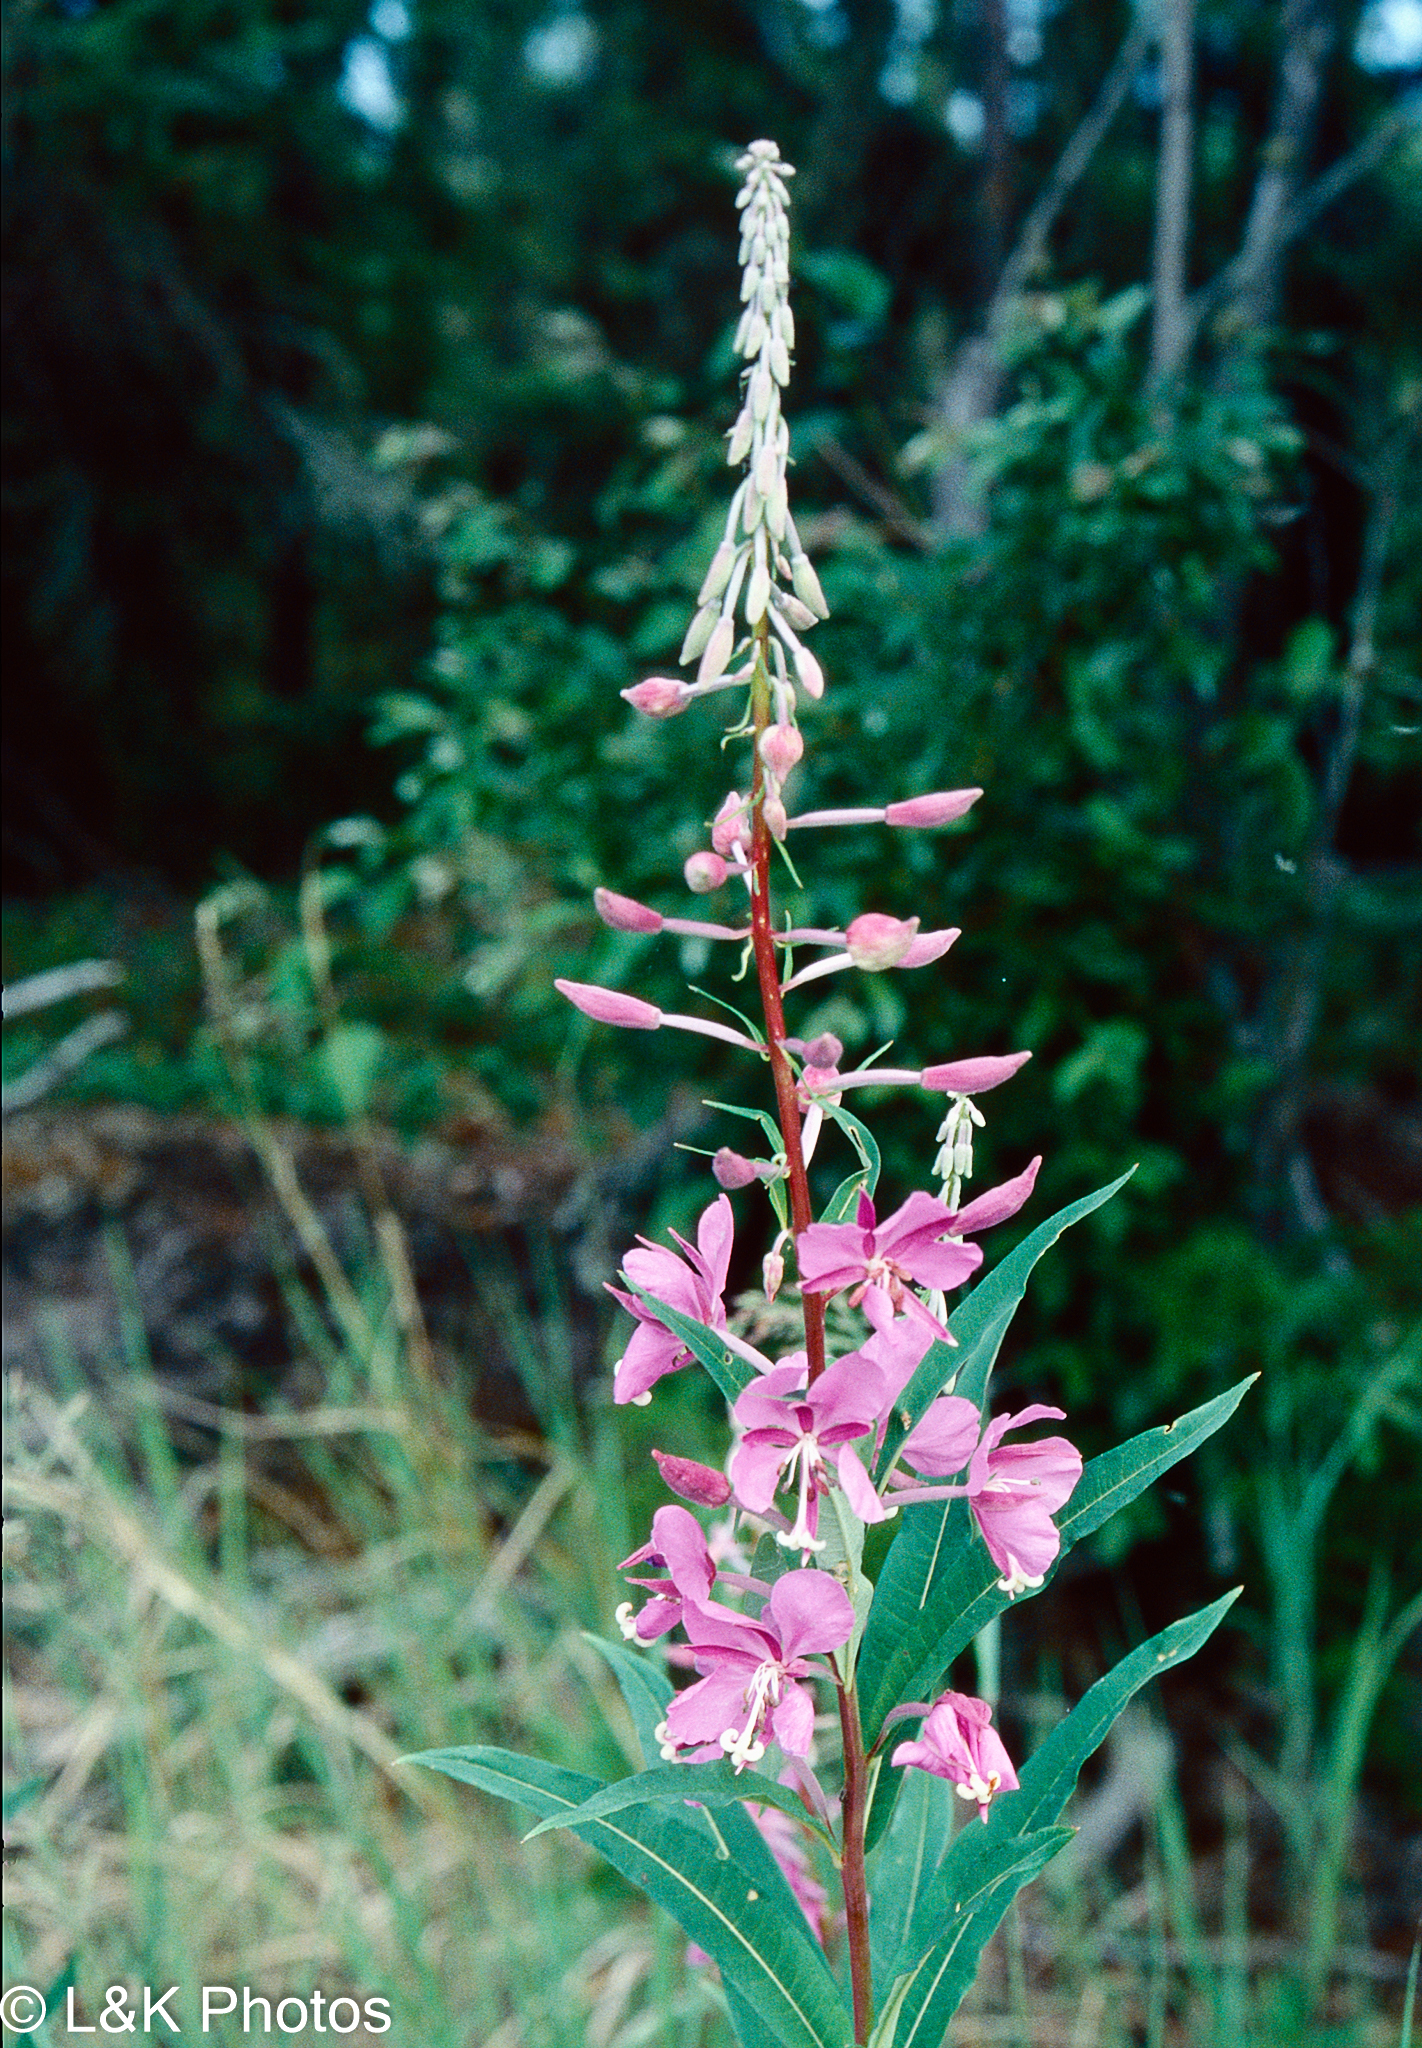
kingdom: Plantae
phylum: Tracheophyta
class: Magnoliopsida
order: Myrtales
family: Onagraceae
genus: Chamaenerion
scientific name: Chamaenerion angustifolium
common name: Fireweed
